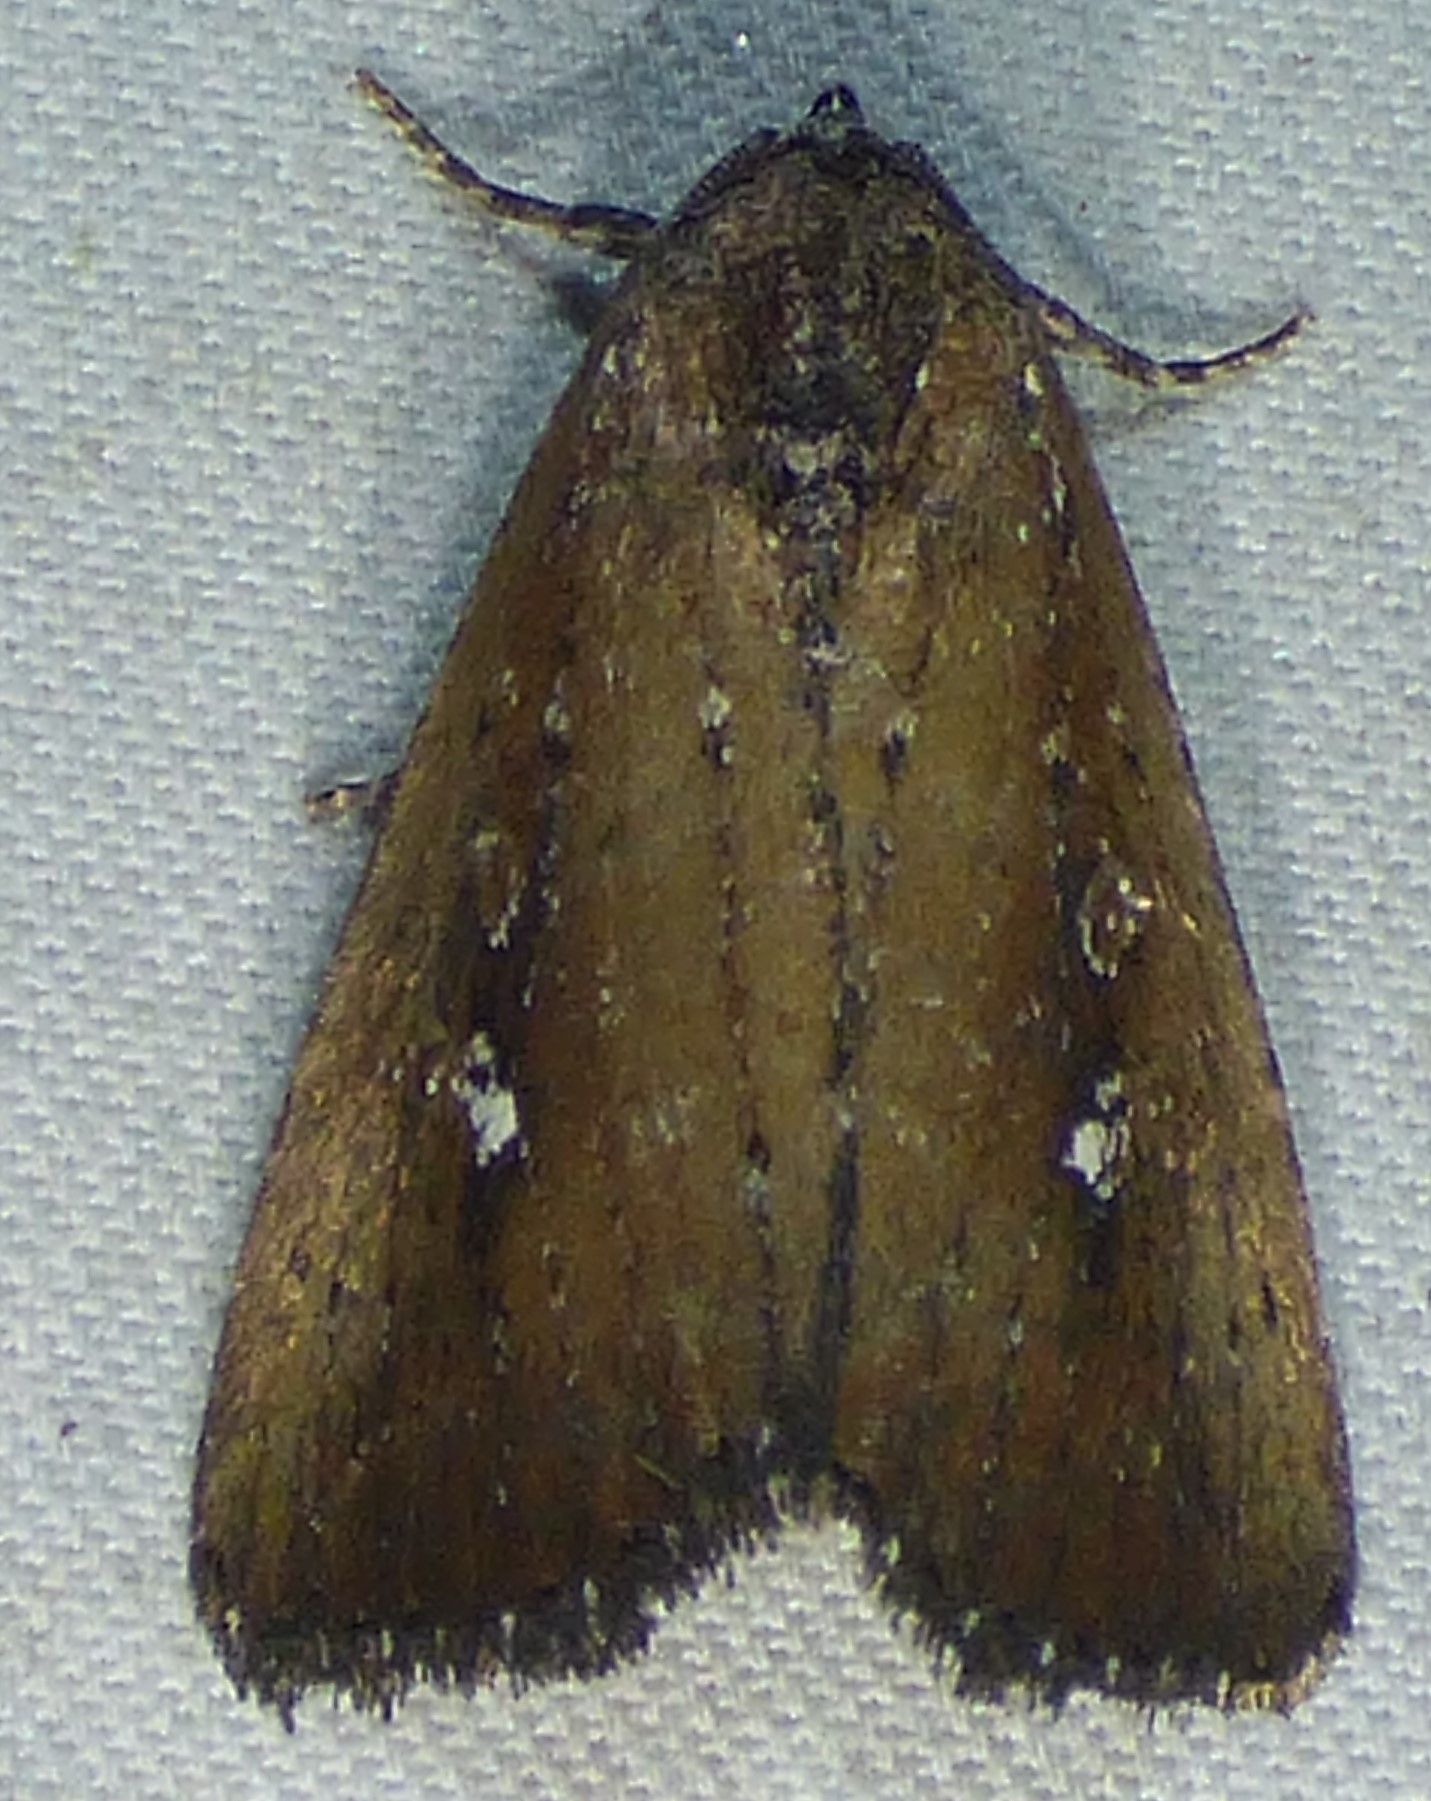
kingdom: Animalia
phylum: Arthropoda
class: Insecta
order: Lepidoptera
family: Noctuidae
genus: Condica
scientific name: Condica videns
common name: White-dotted groundling
